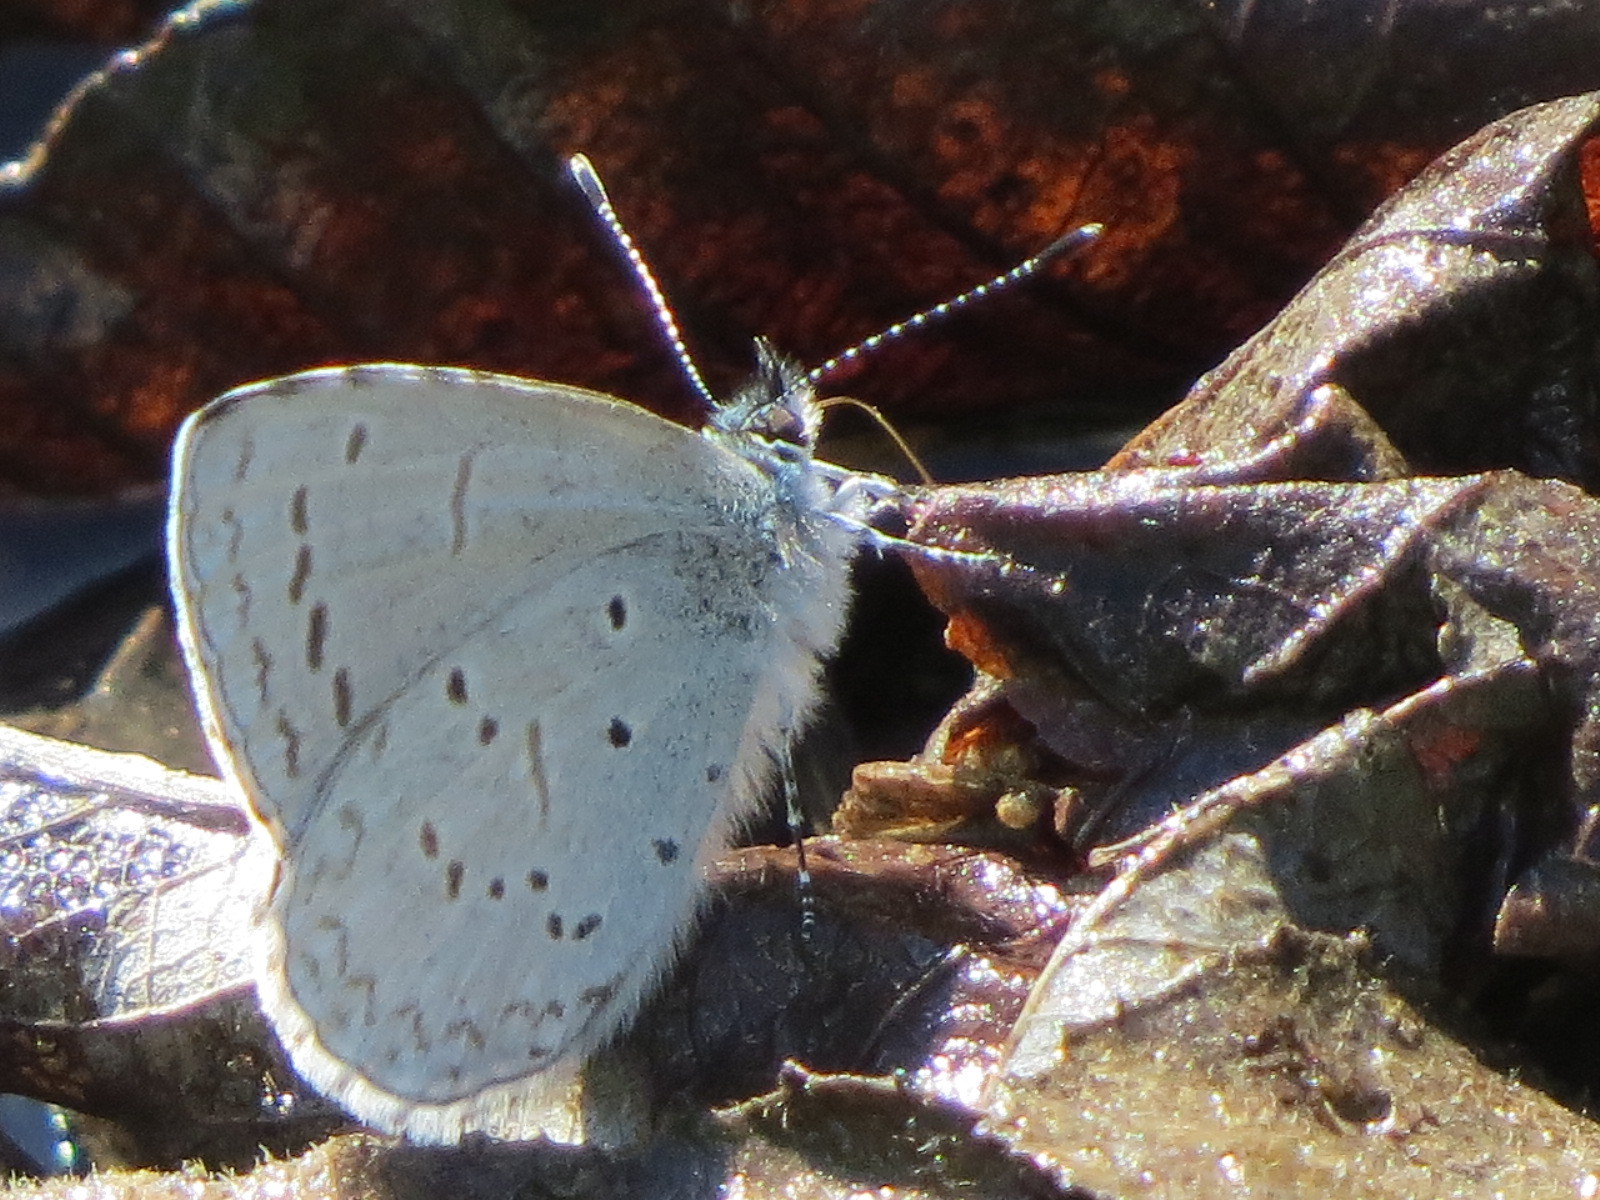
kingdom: Animalia
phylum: Arthropoda
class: Insecta
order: Lepidoptera
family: Lycaenidae
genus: Celastrina
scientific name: Celastrina ladon
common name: Spring azure
